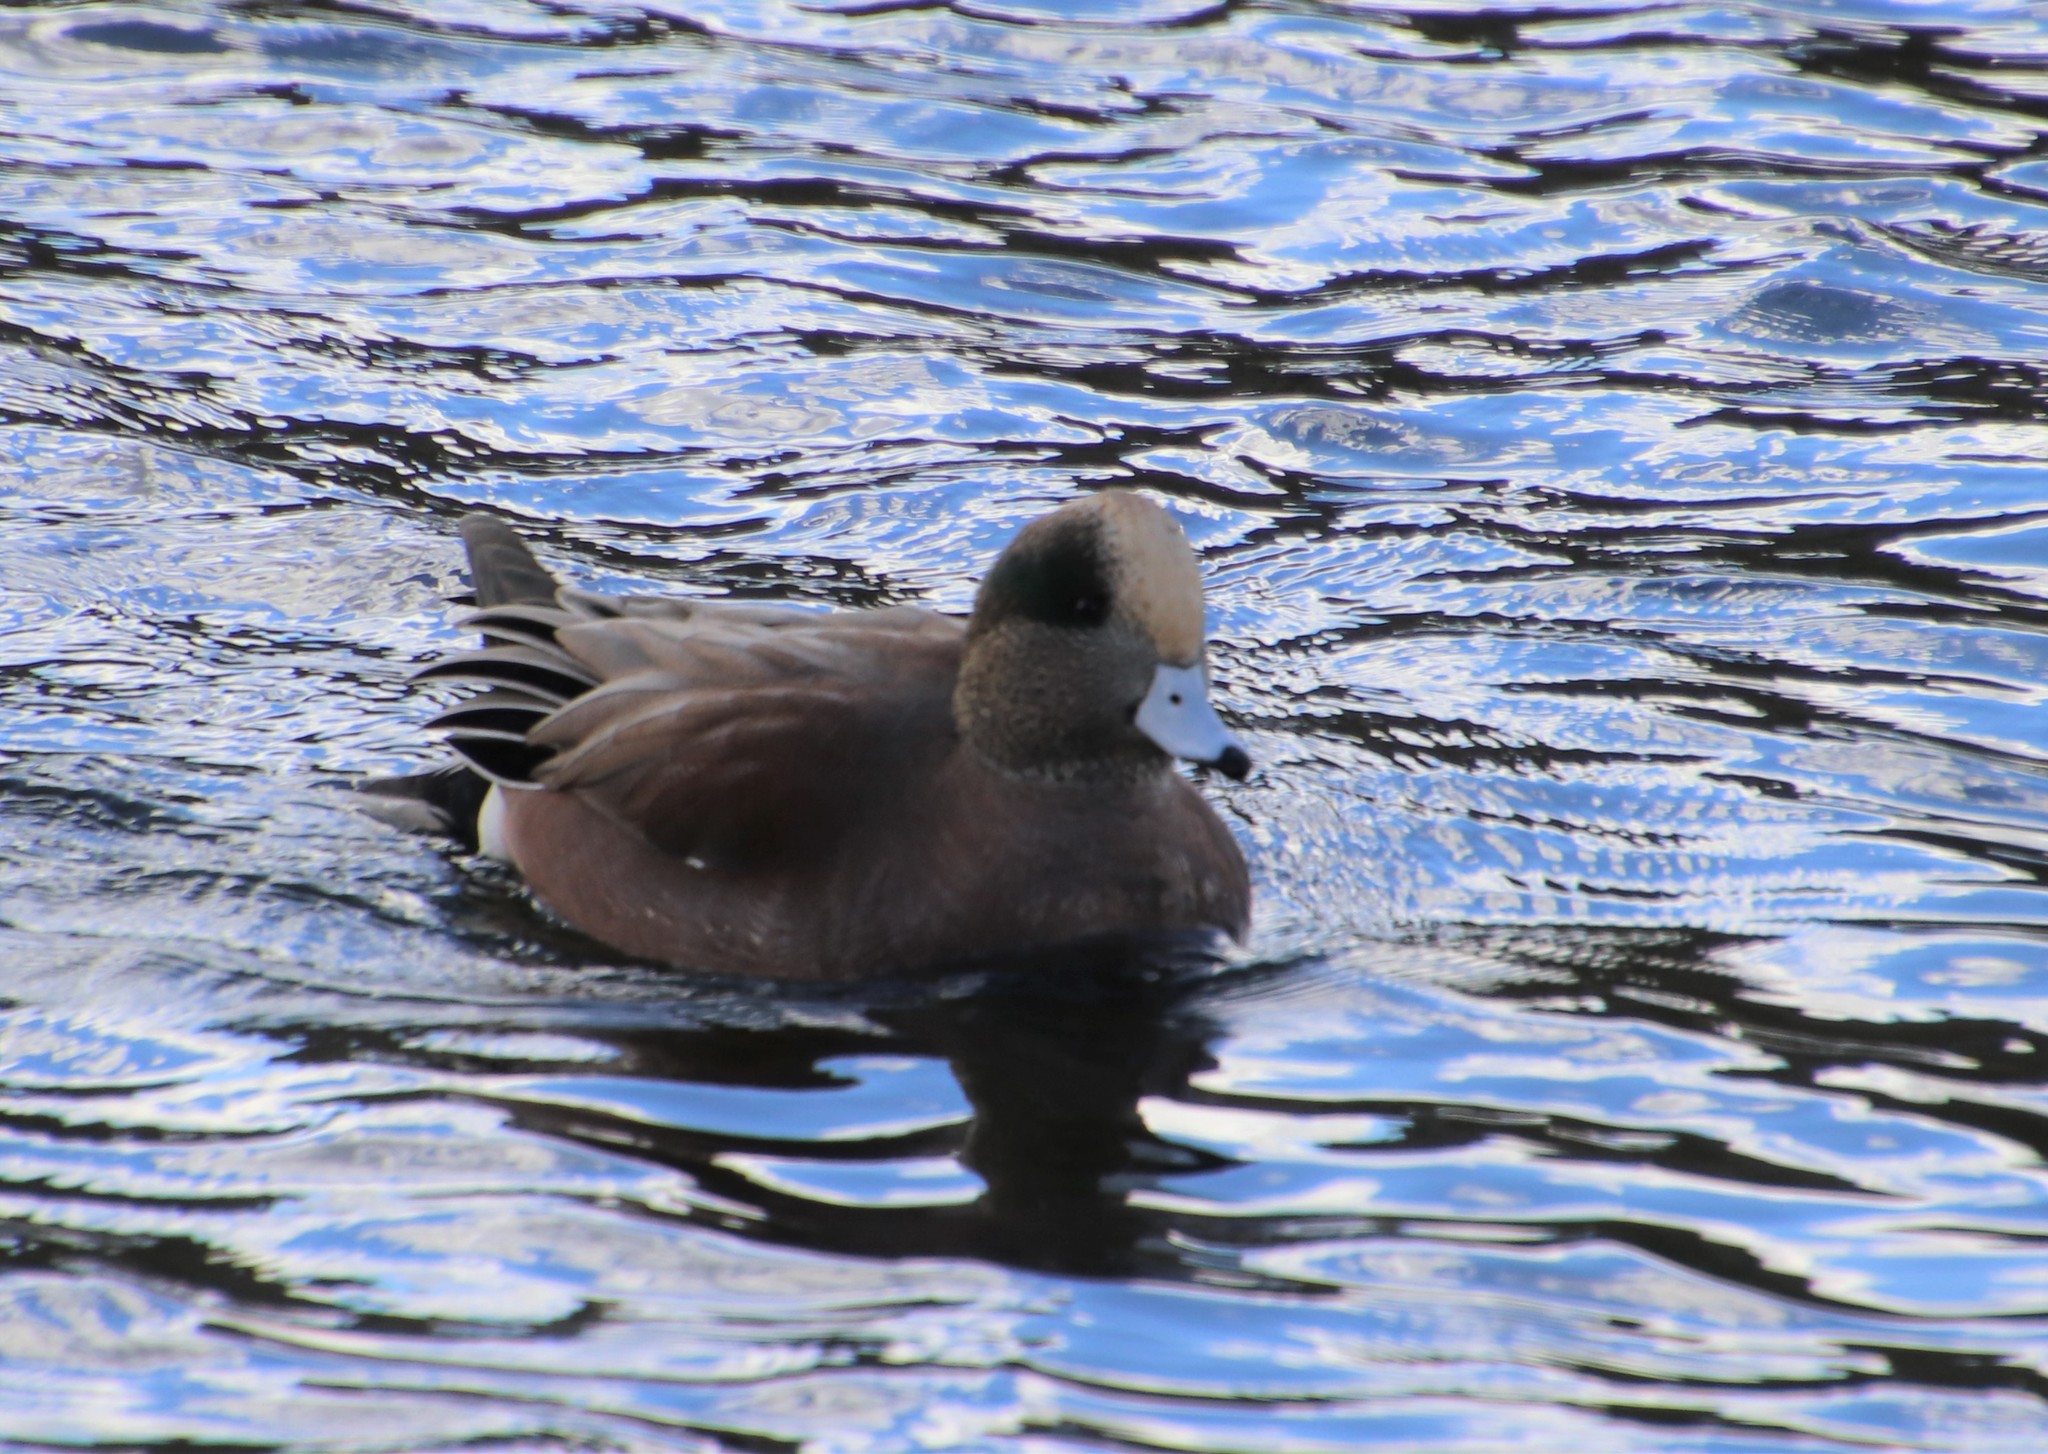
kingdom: Animalia
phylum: Chordata
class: Aves
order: Anseriformes
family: Anatidae
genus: Mareca
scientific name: Mareca americana
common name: American wigeon
